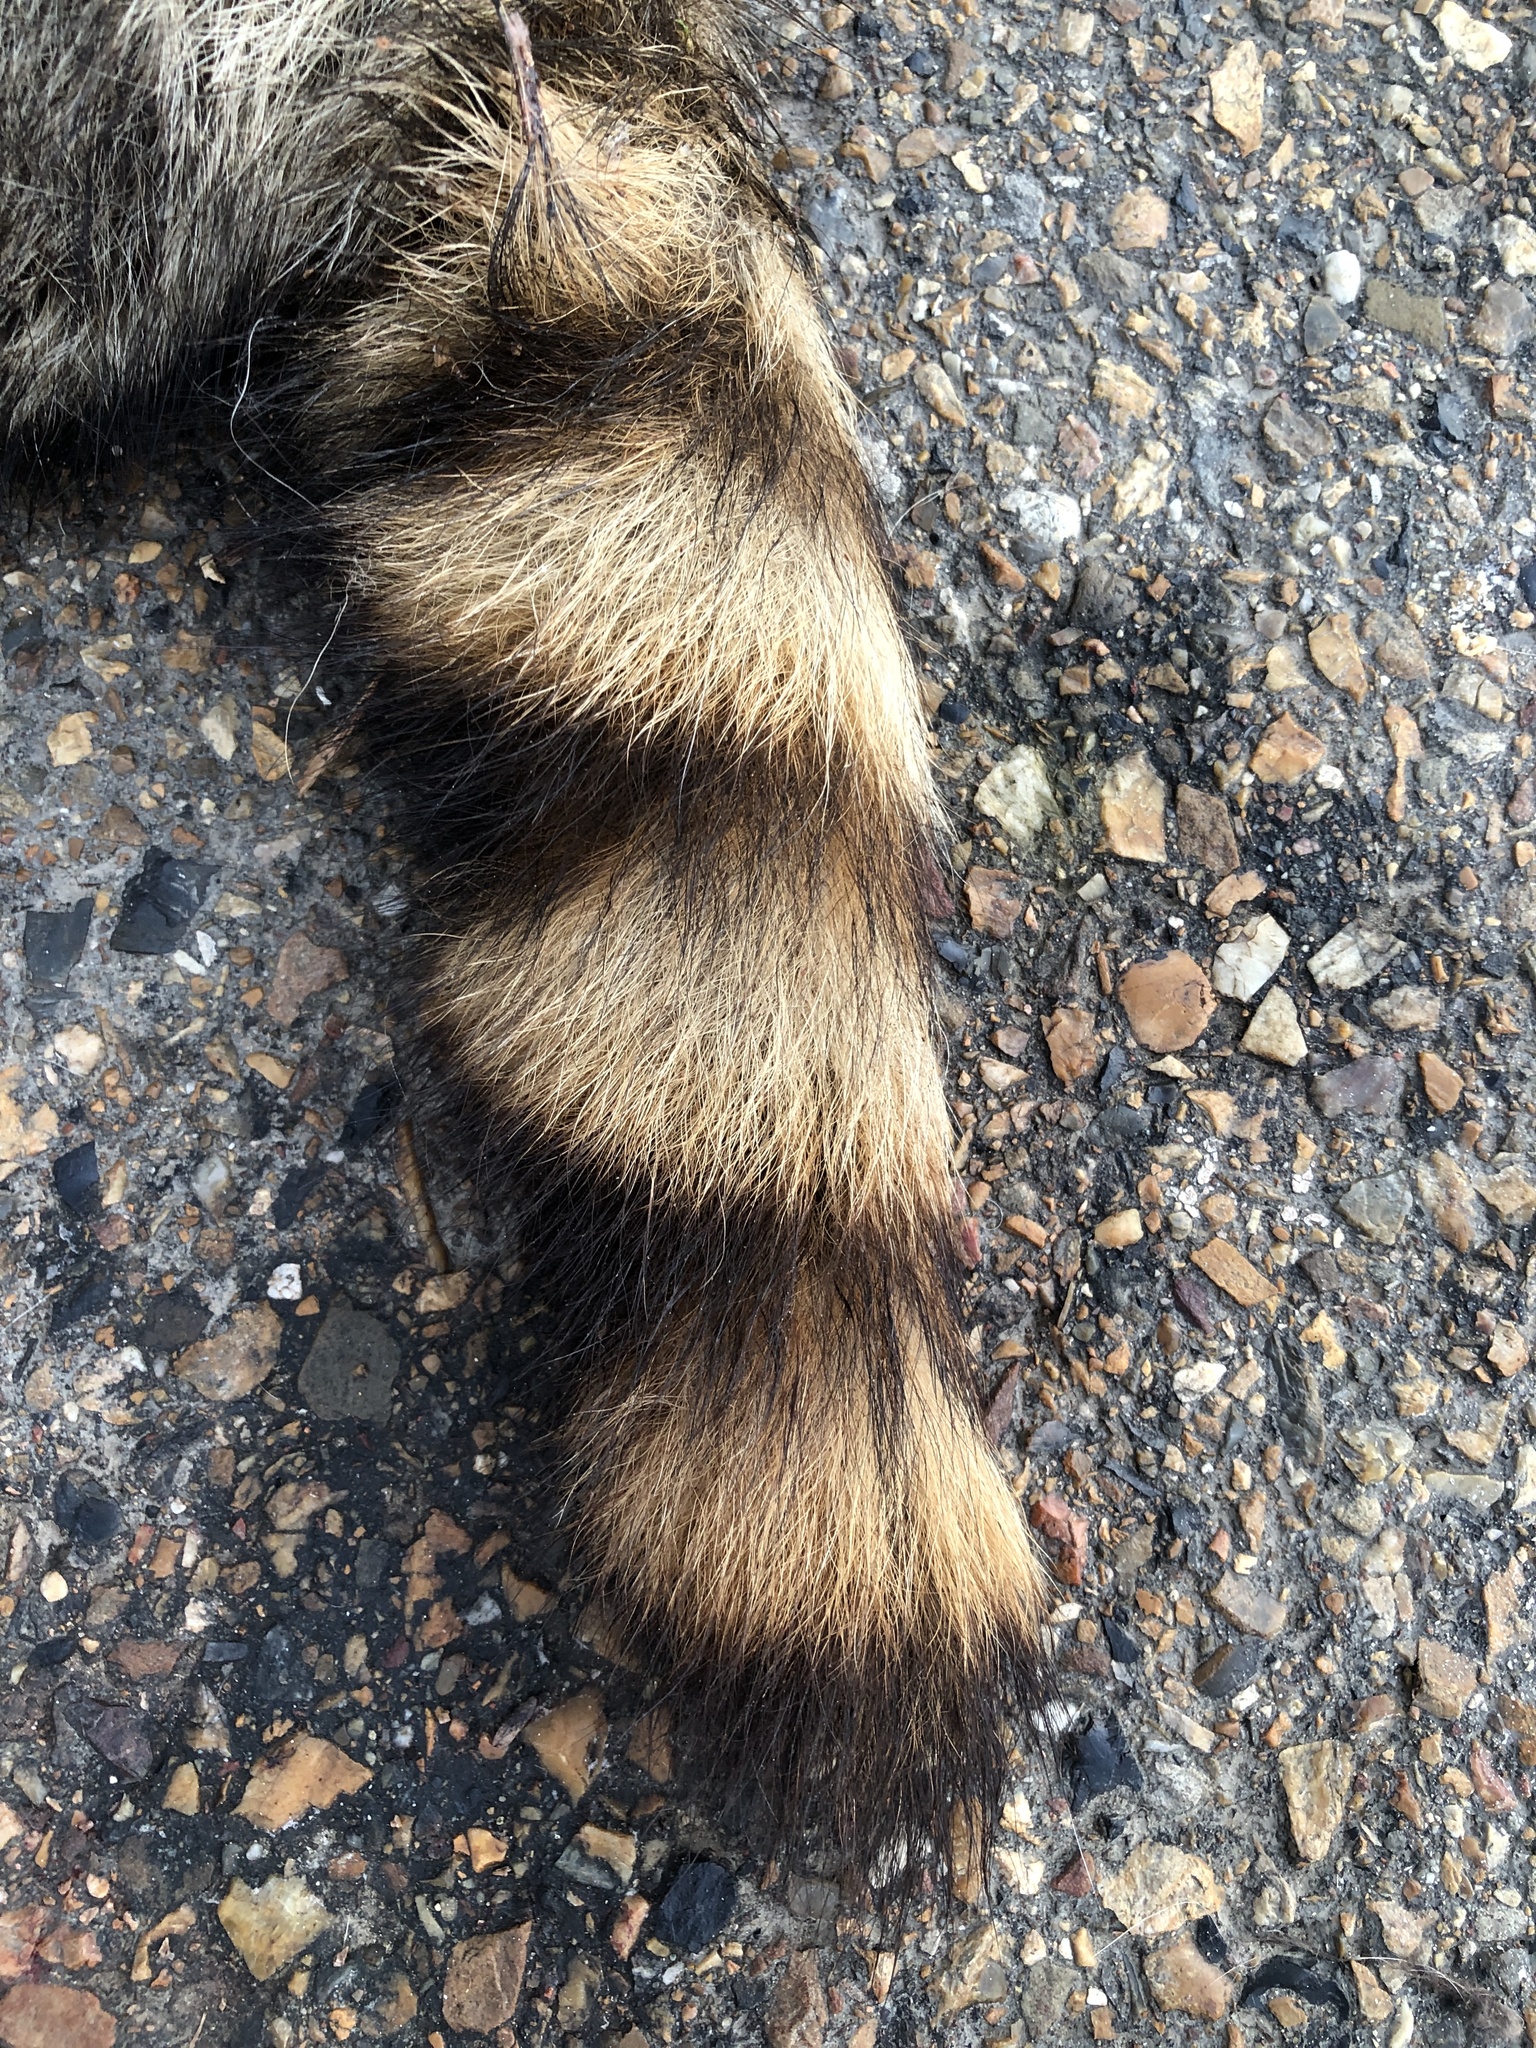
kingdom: Animalia
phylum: Chordata
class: Mammalia
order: Carnivora
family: Procyonidae
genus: Procyon
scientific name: Procyon lotor
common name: Raccoon
